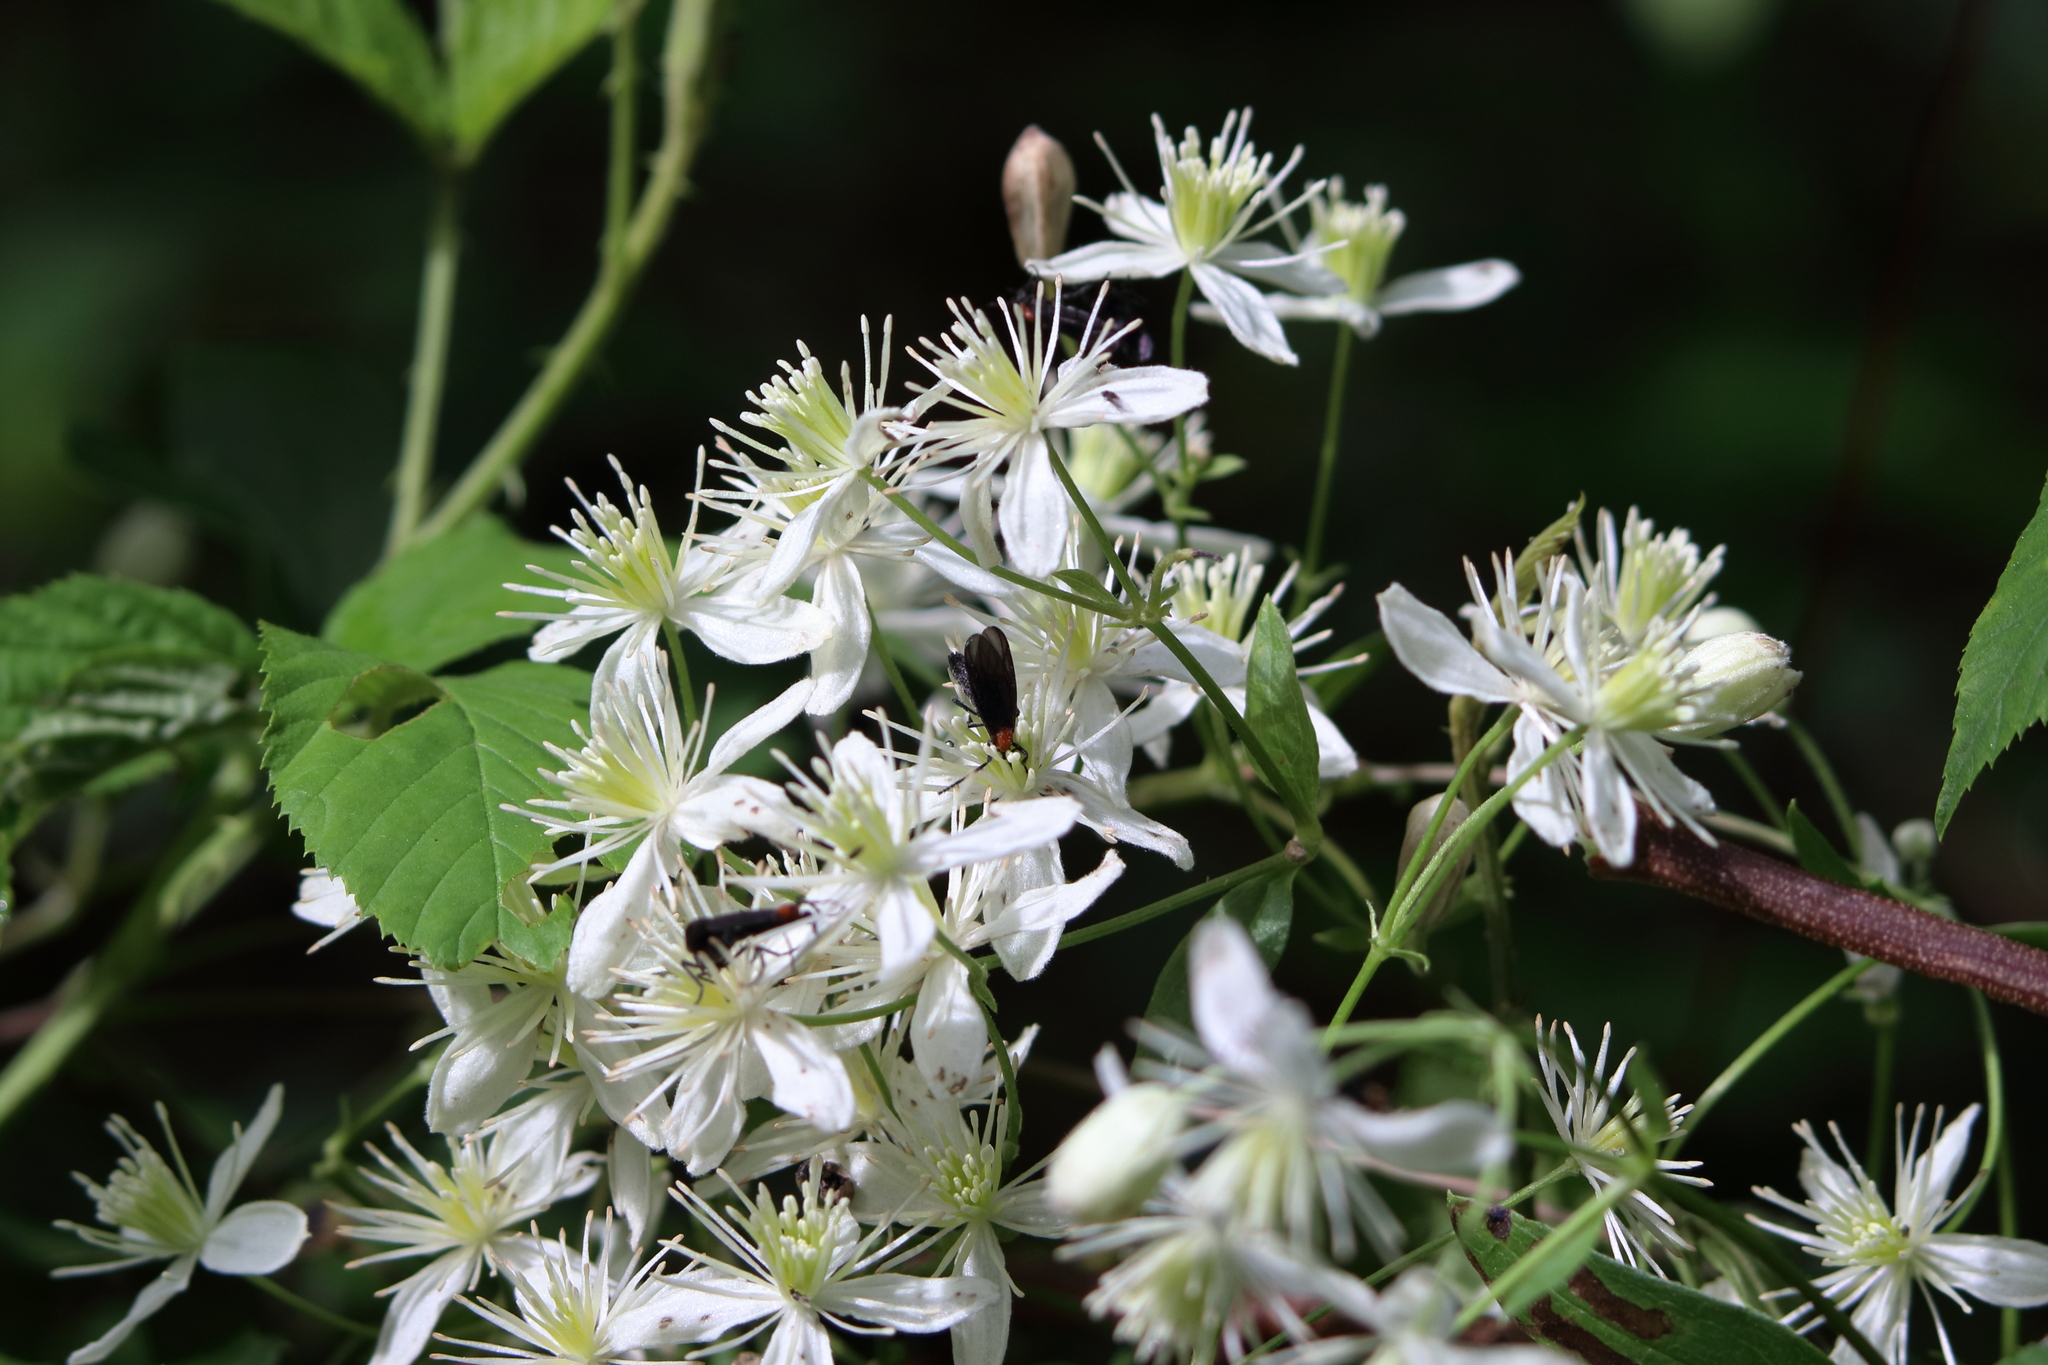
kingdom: Plantae
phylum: Tracheophyta
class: Magnoliopsida
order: Ranunculales
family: Ranunculaceae
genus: Clematis
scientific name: Clematis virginiana
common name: Virgin's-bower
